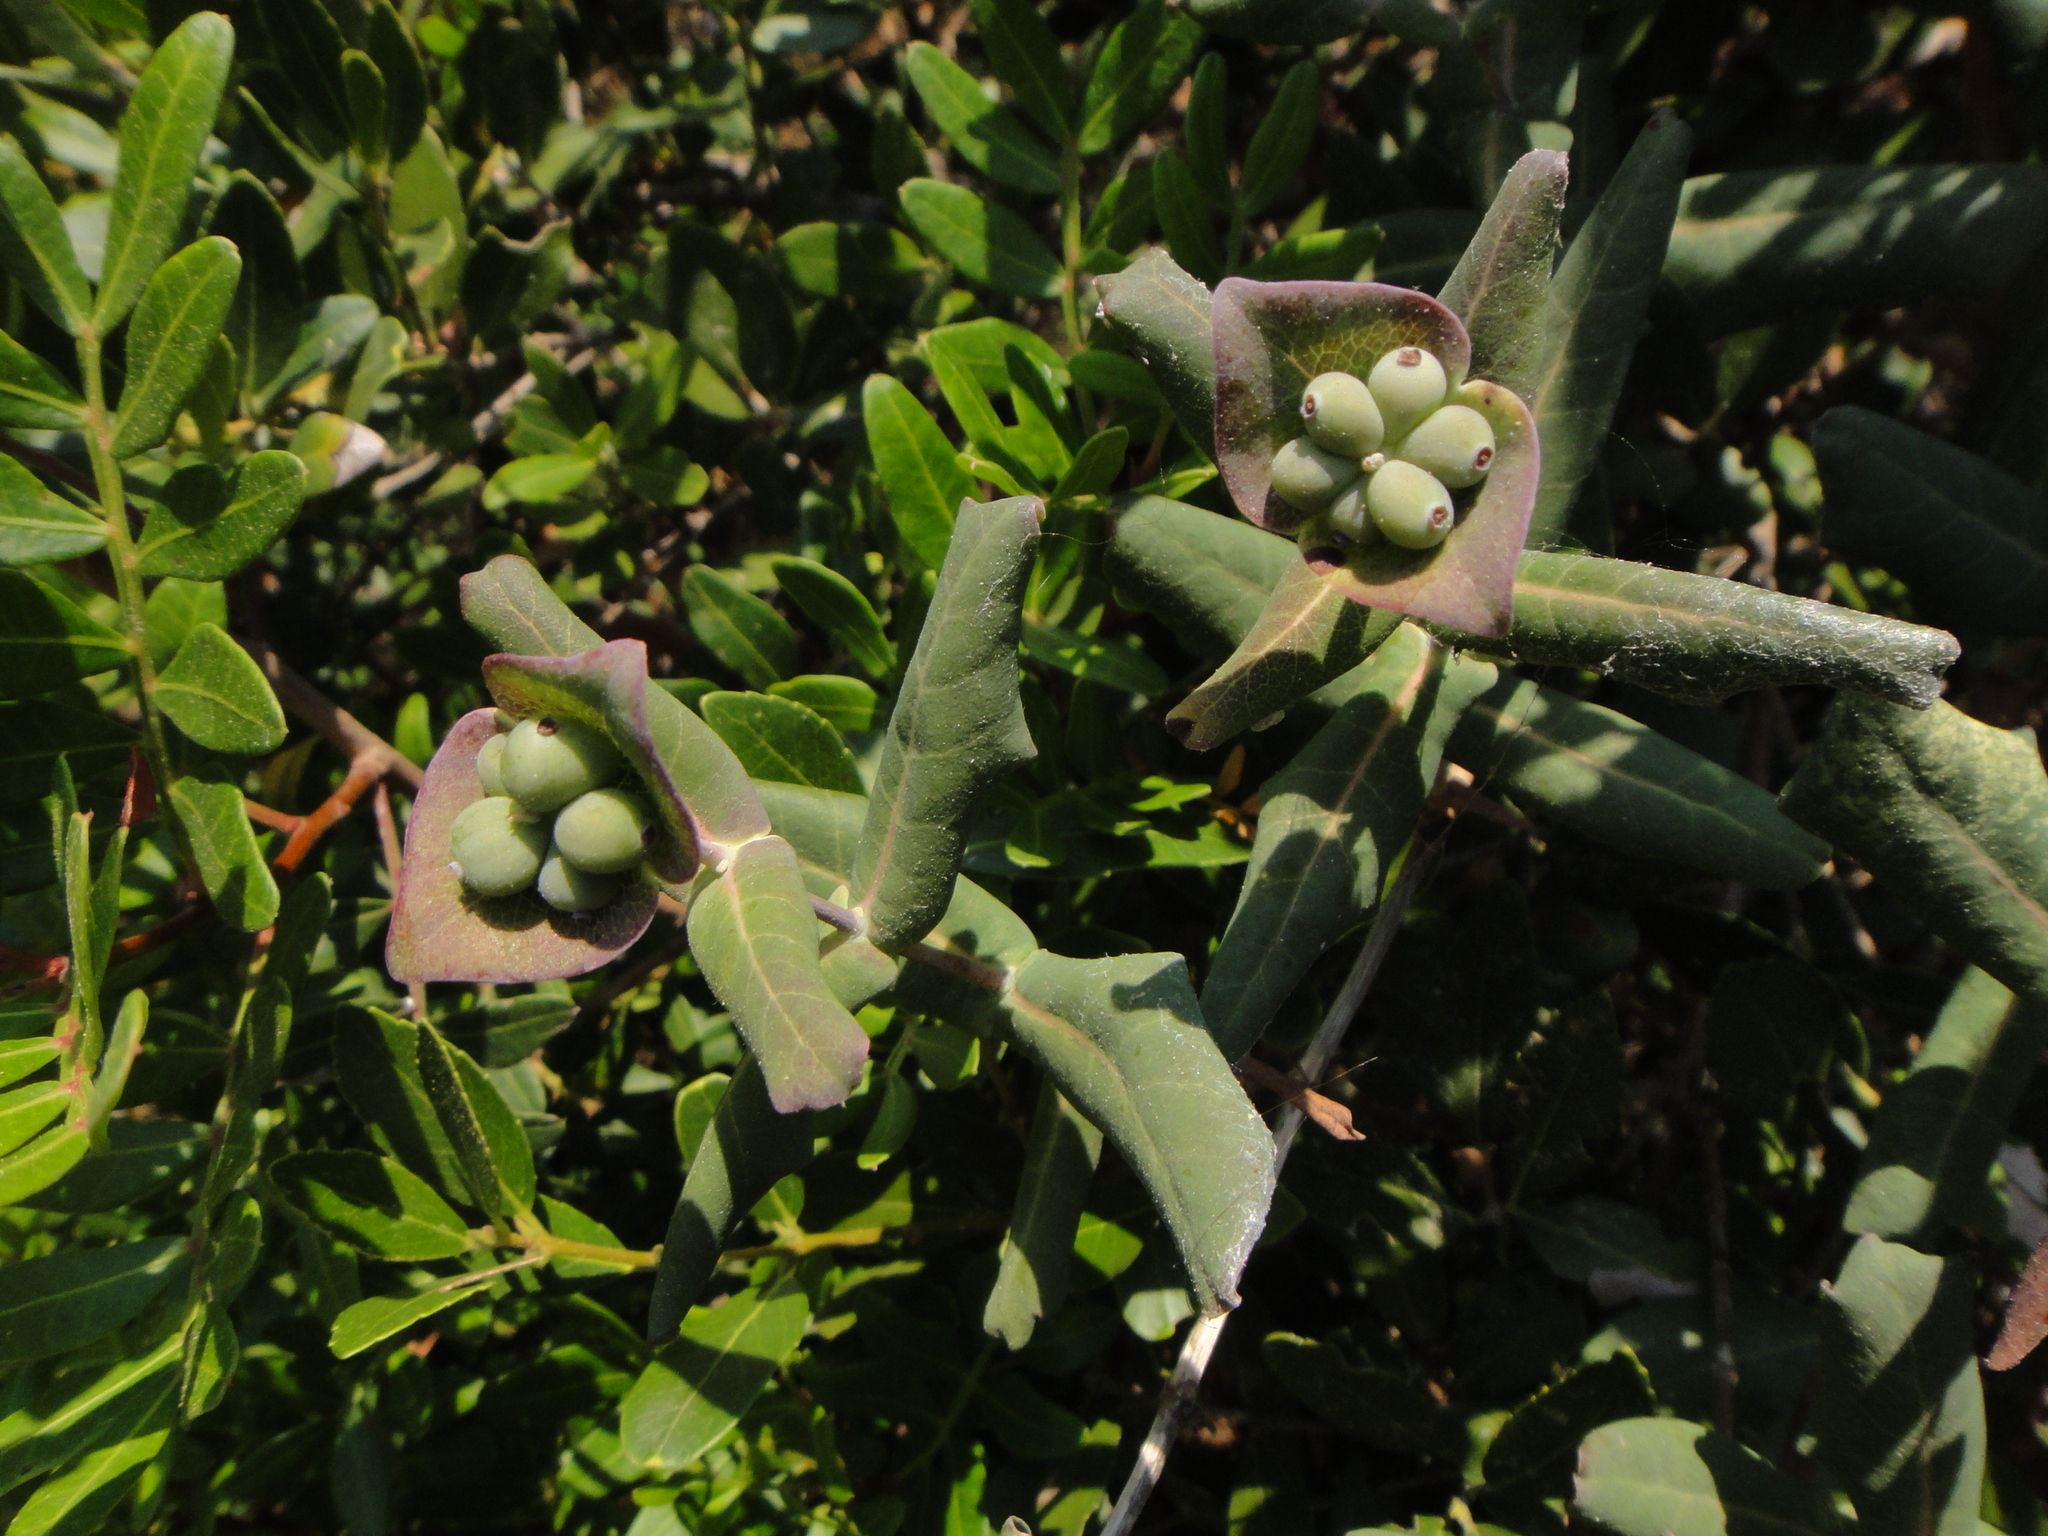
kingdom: Plantae
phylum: Tracheophyta
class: Magnoliopsida
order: Dipsacales
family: Caprifoliaceae
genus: Lonicera
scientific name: Lonicera implexa
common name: Minorca honeysuckle
